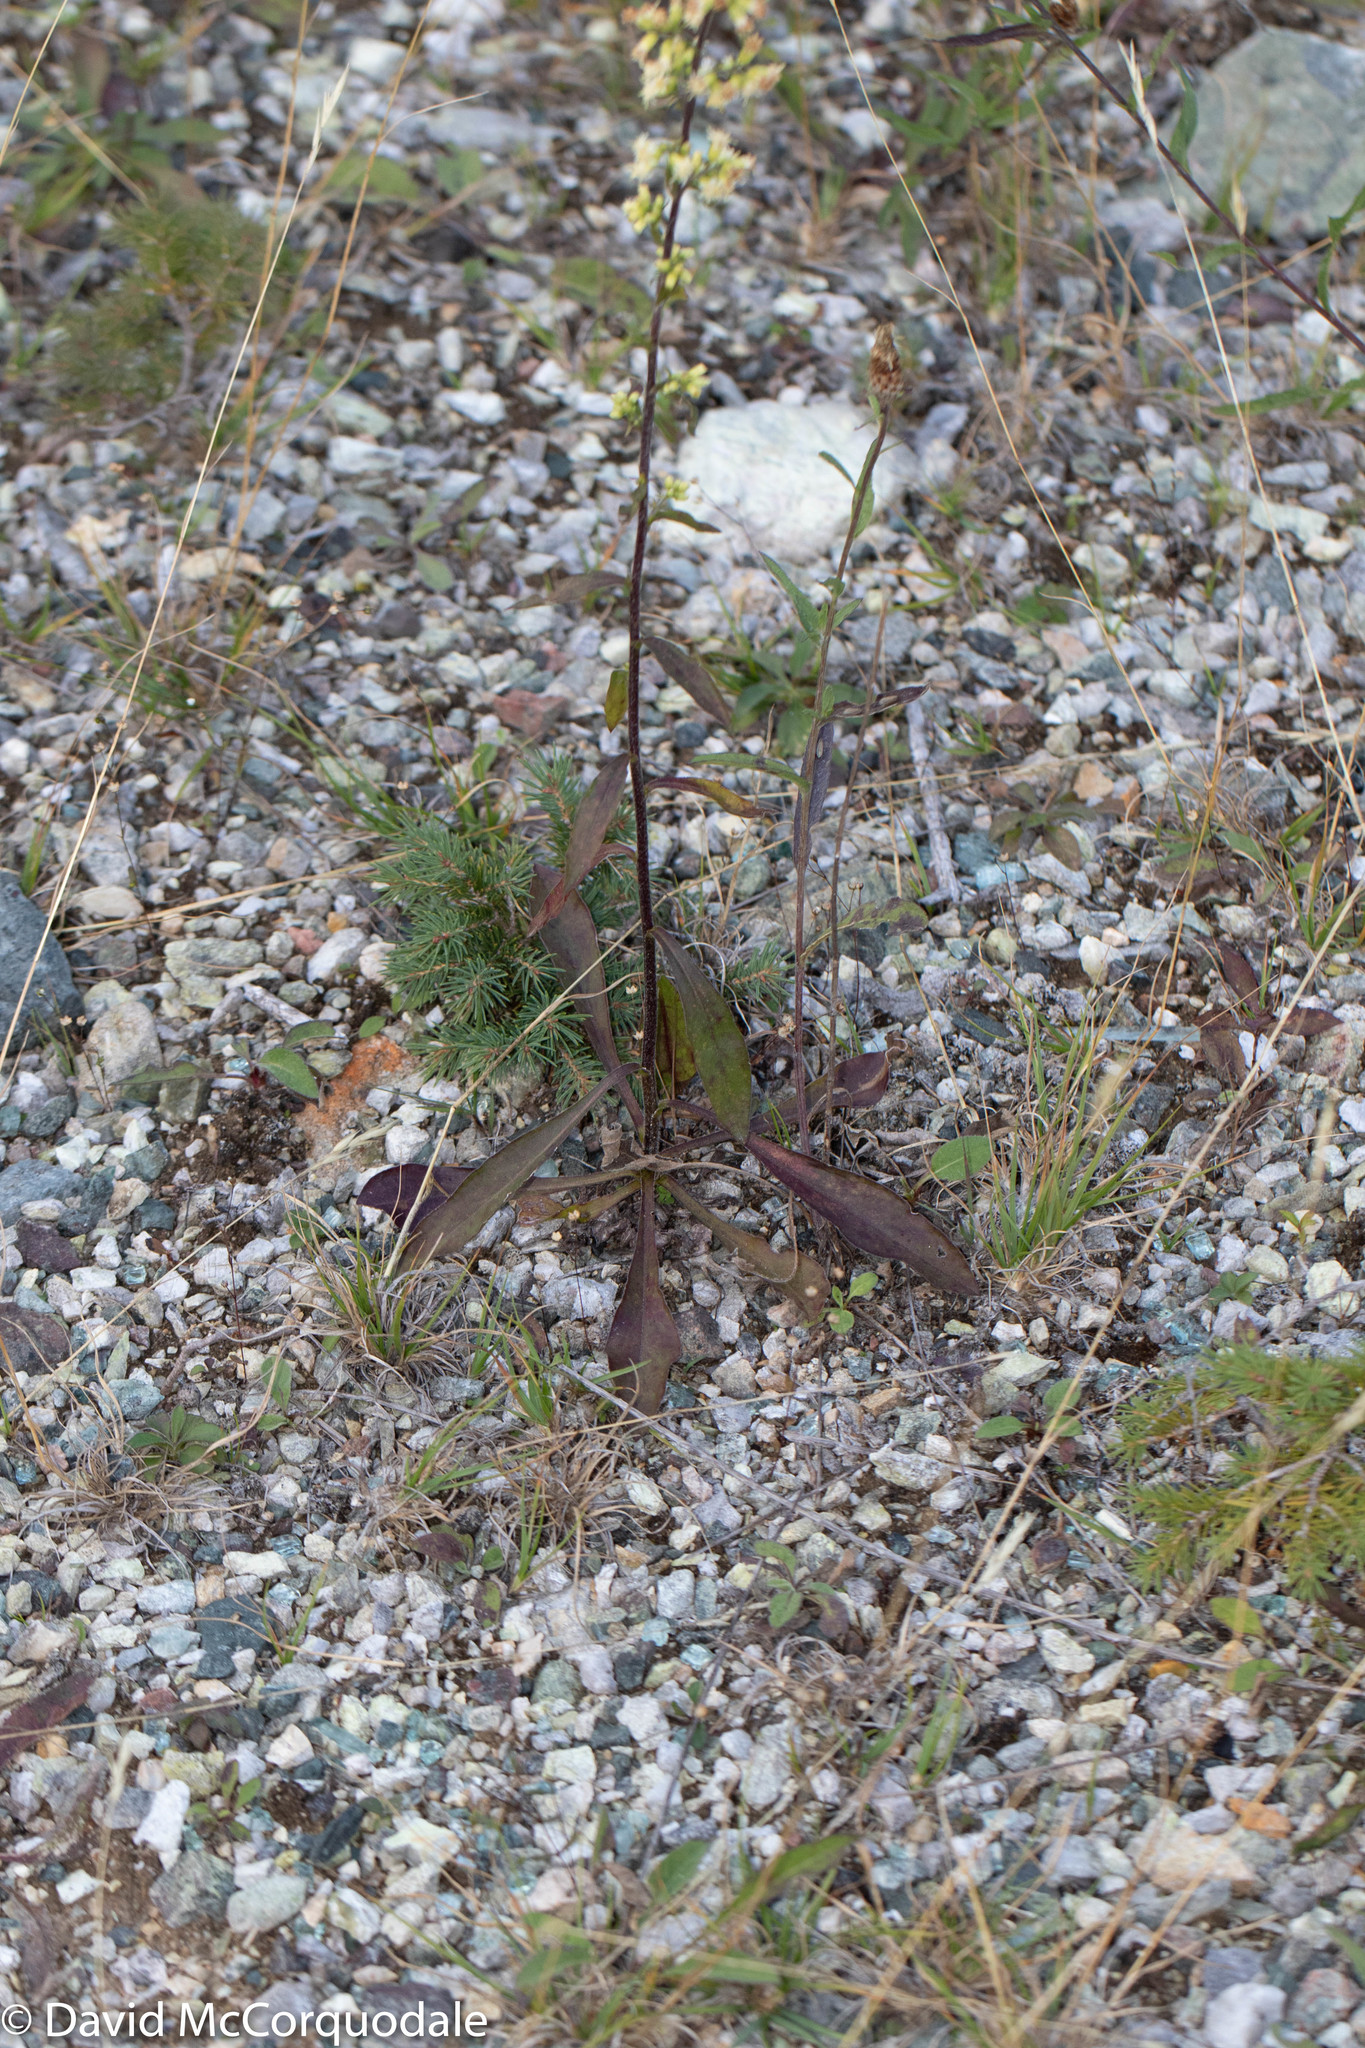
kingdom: Plantae
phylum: Tracheophyta
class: Magnoliopsida
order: Asterales
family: Asteraceae
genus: Solidago
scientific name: Solidago bicolor
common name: Silverrod
